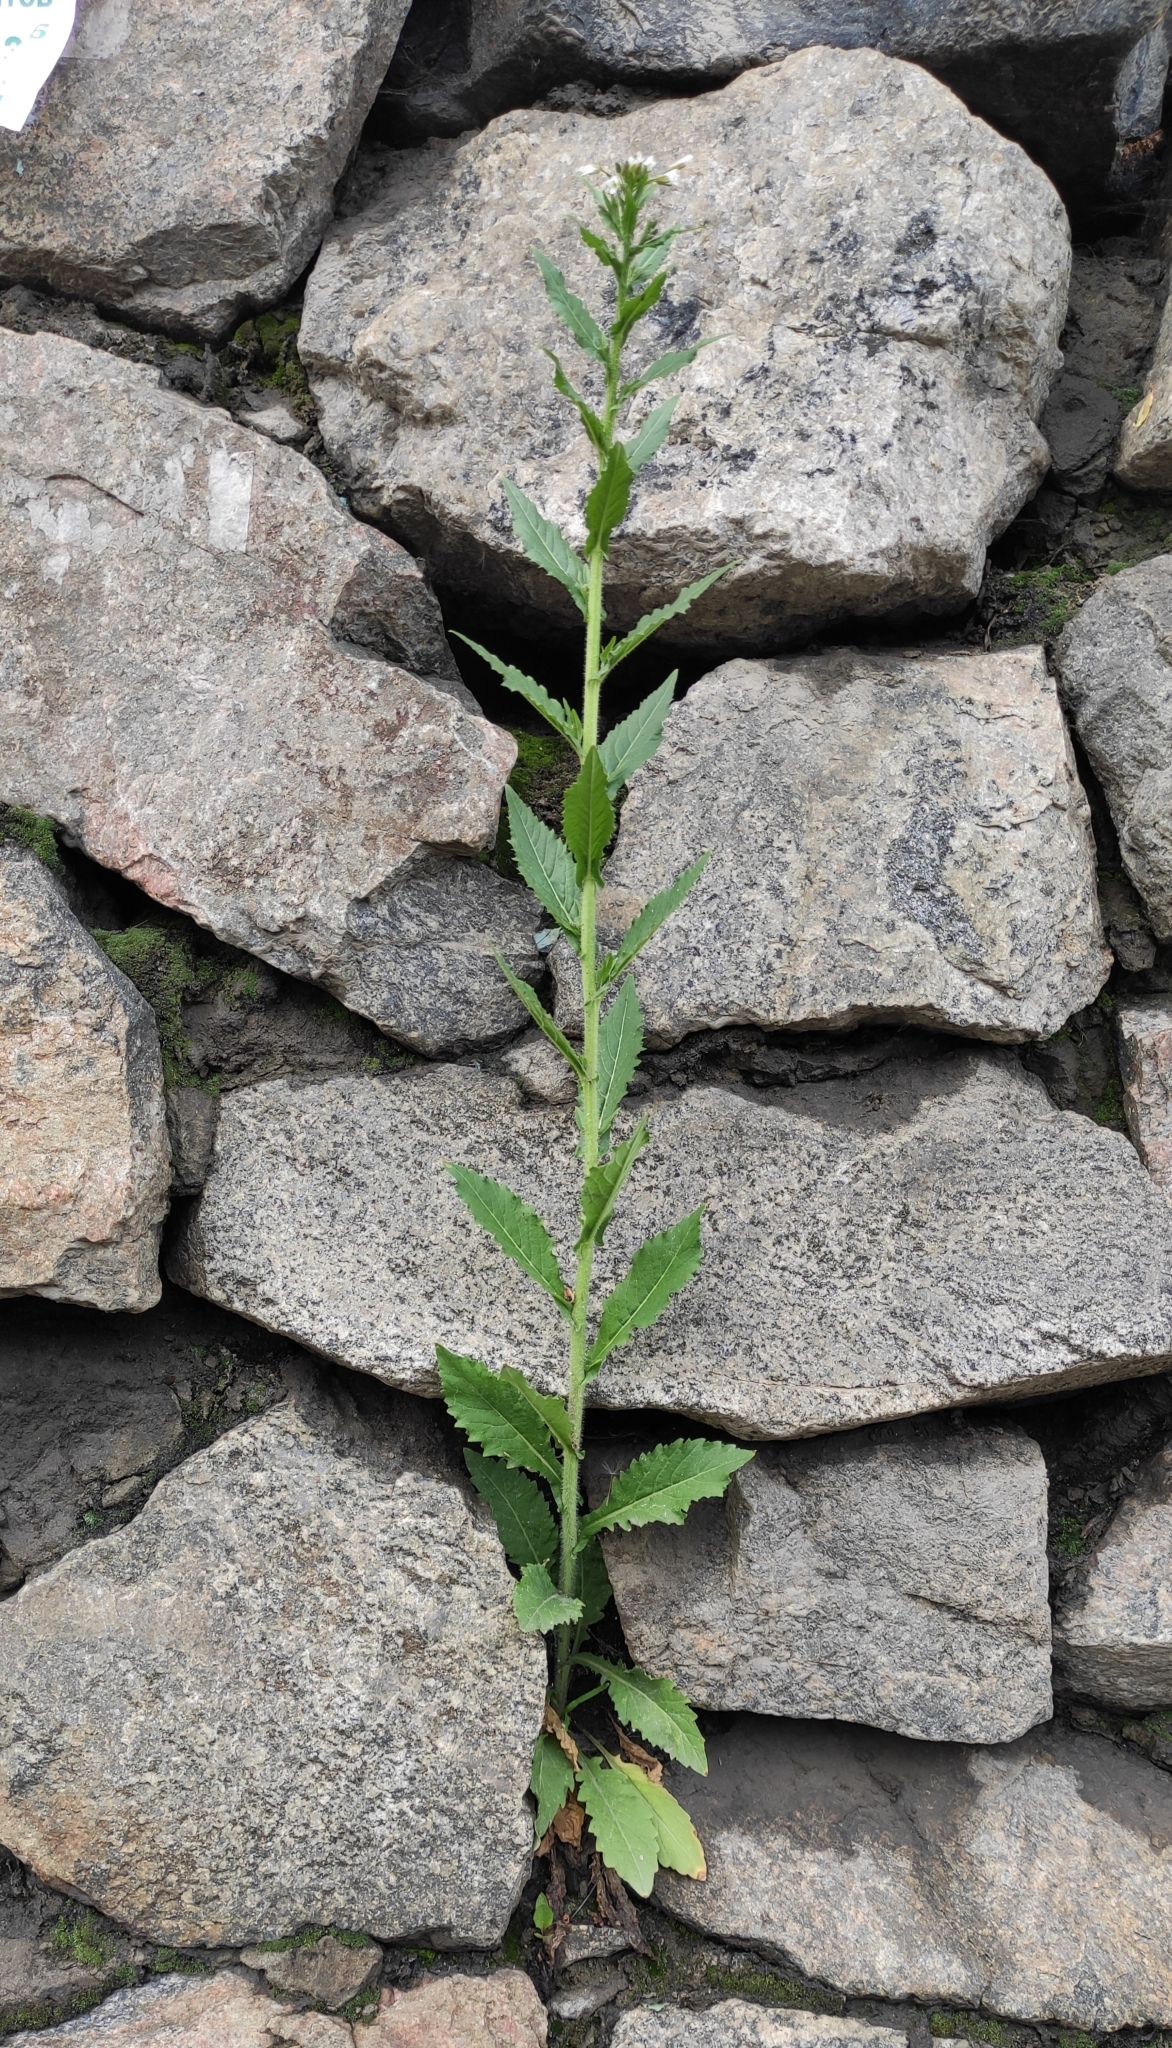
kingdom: Plantae
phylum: Tracheophyta
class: Magnoliopsida
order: Brassicales
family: Brassicaceae
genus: Catolobus
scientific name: Catolobus pendulus
